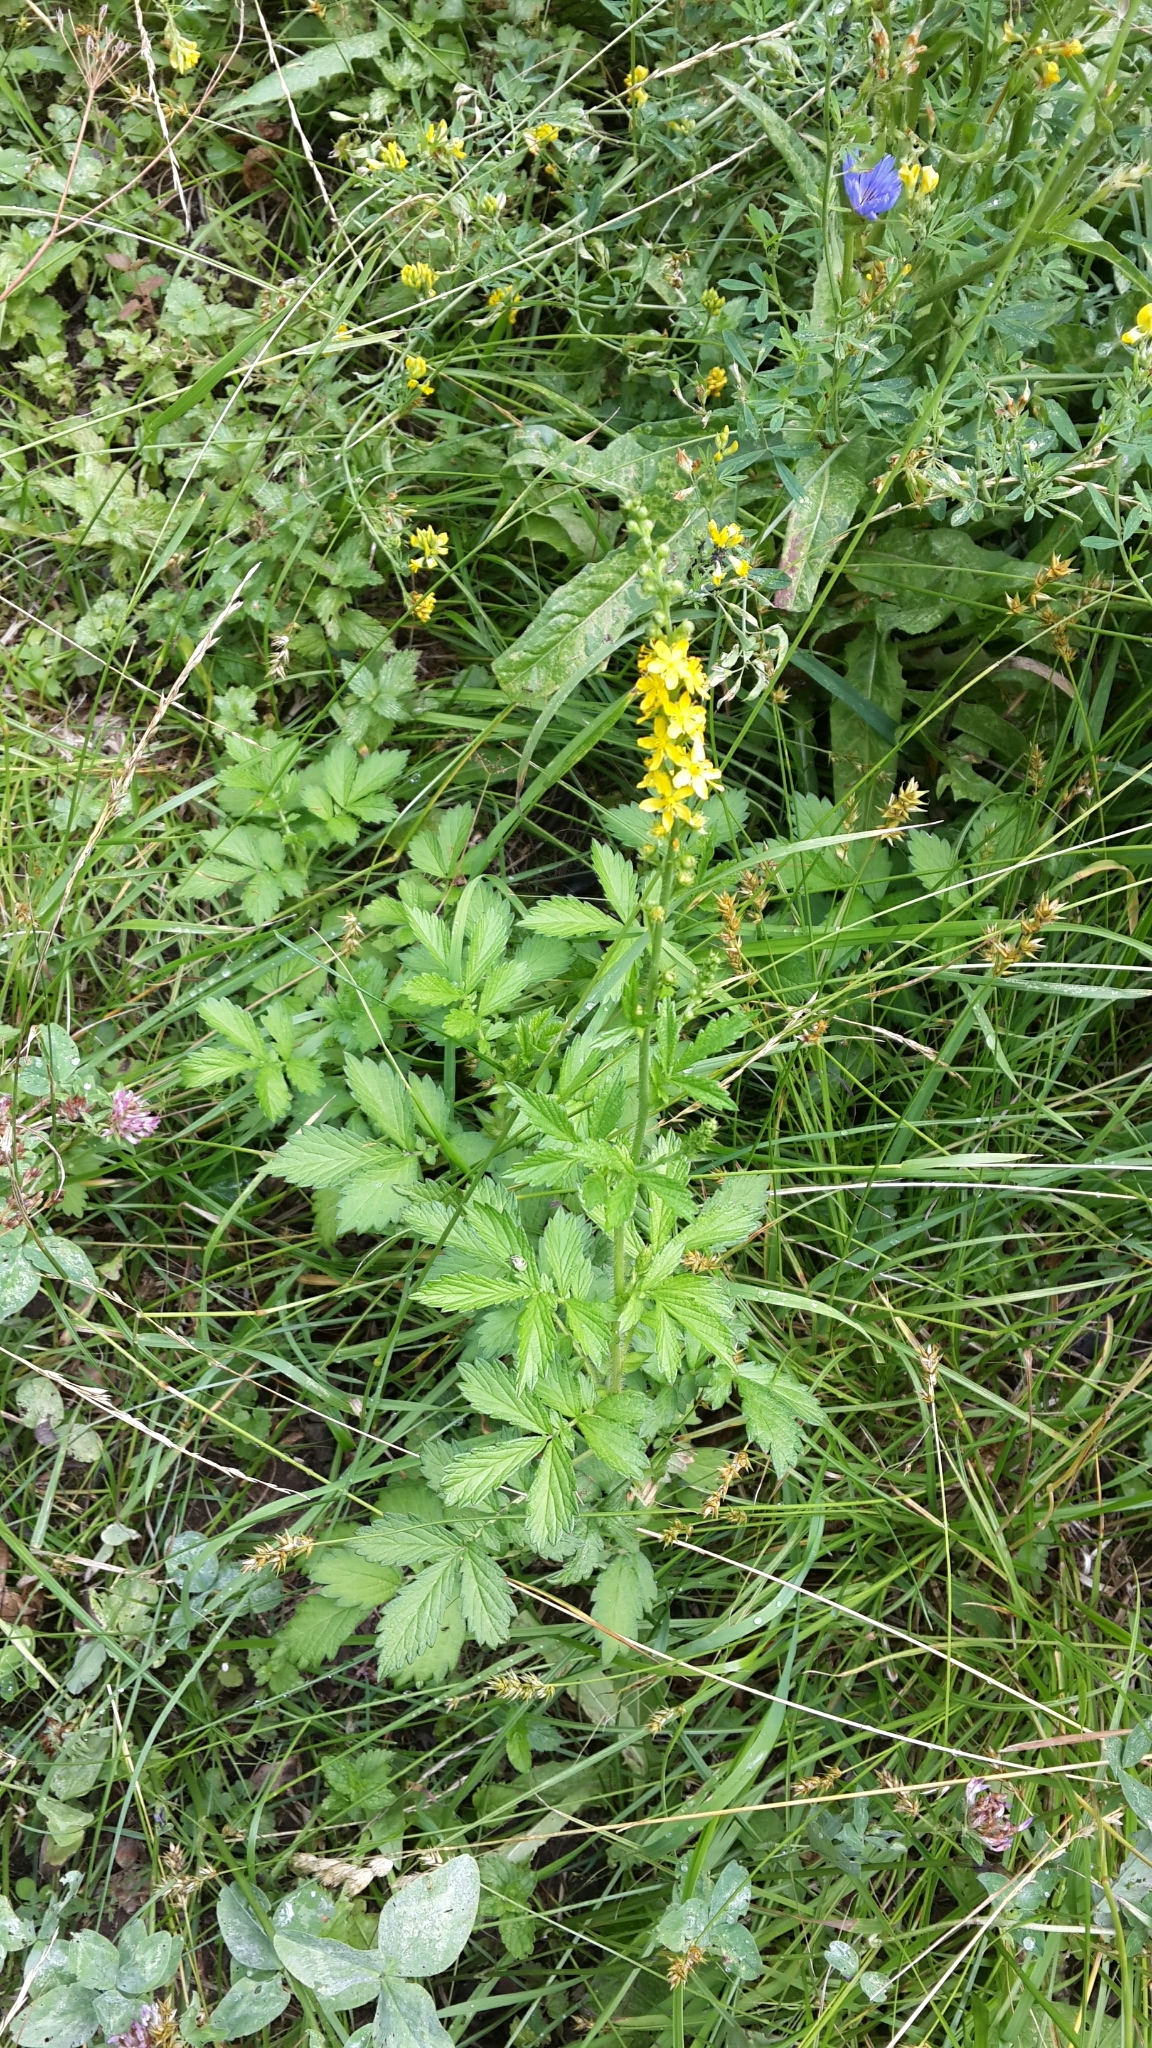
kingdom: Plantae
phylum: Tracheophyta
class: Magnoliopsida
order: Rosales
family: Rosaceae
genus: Agrimonia
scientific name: Agrimonia pilosa
